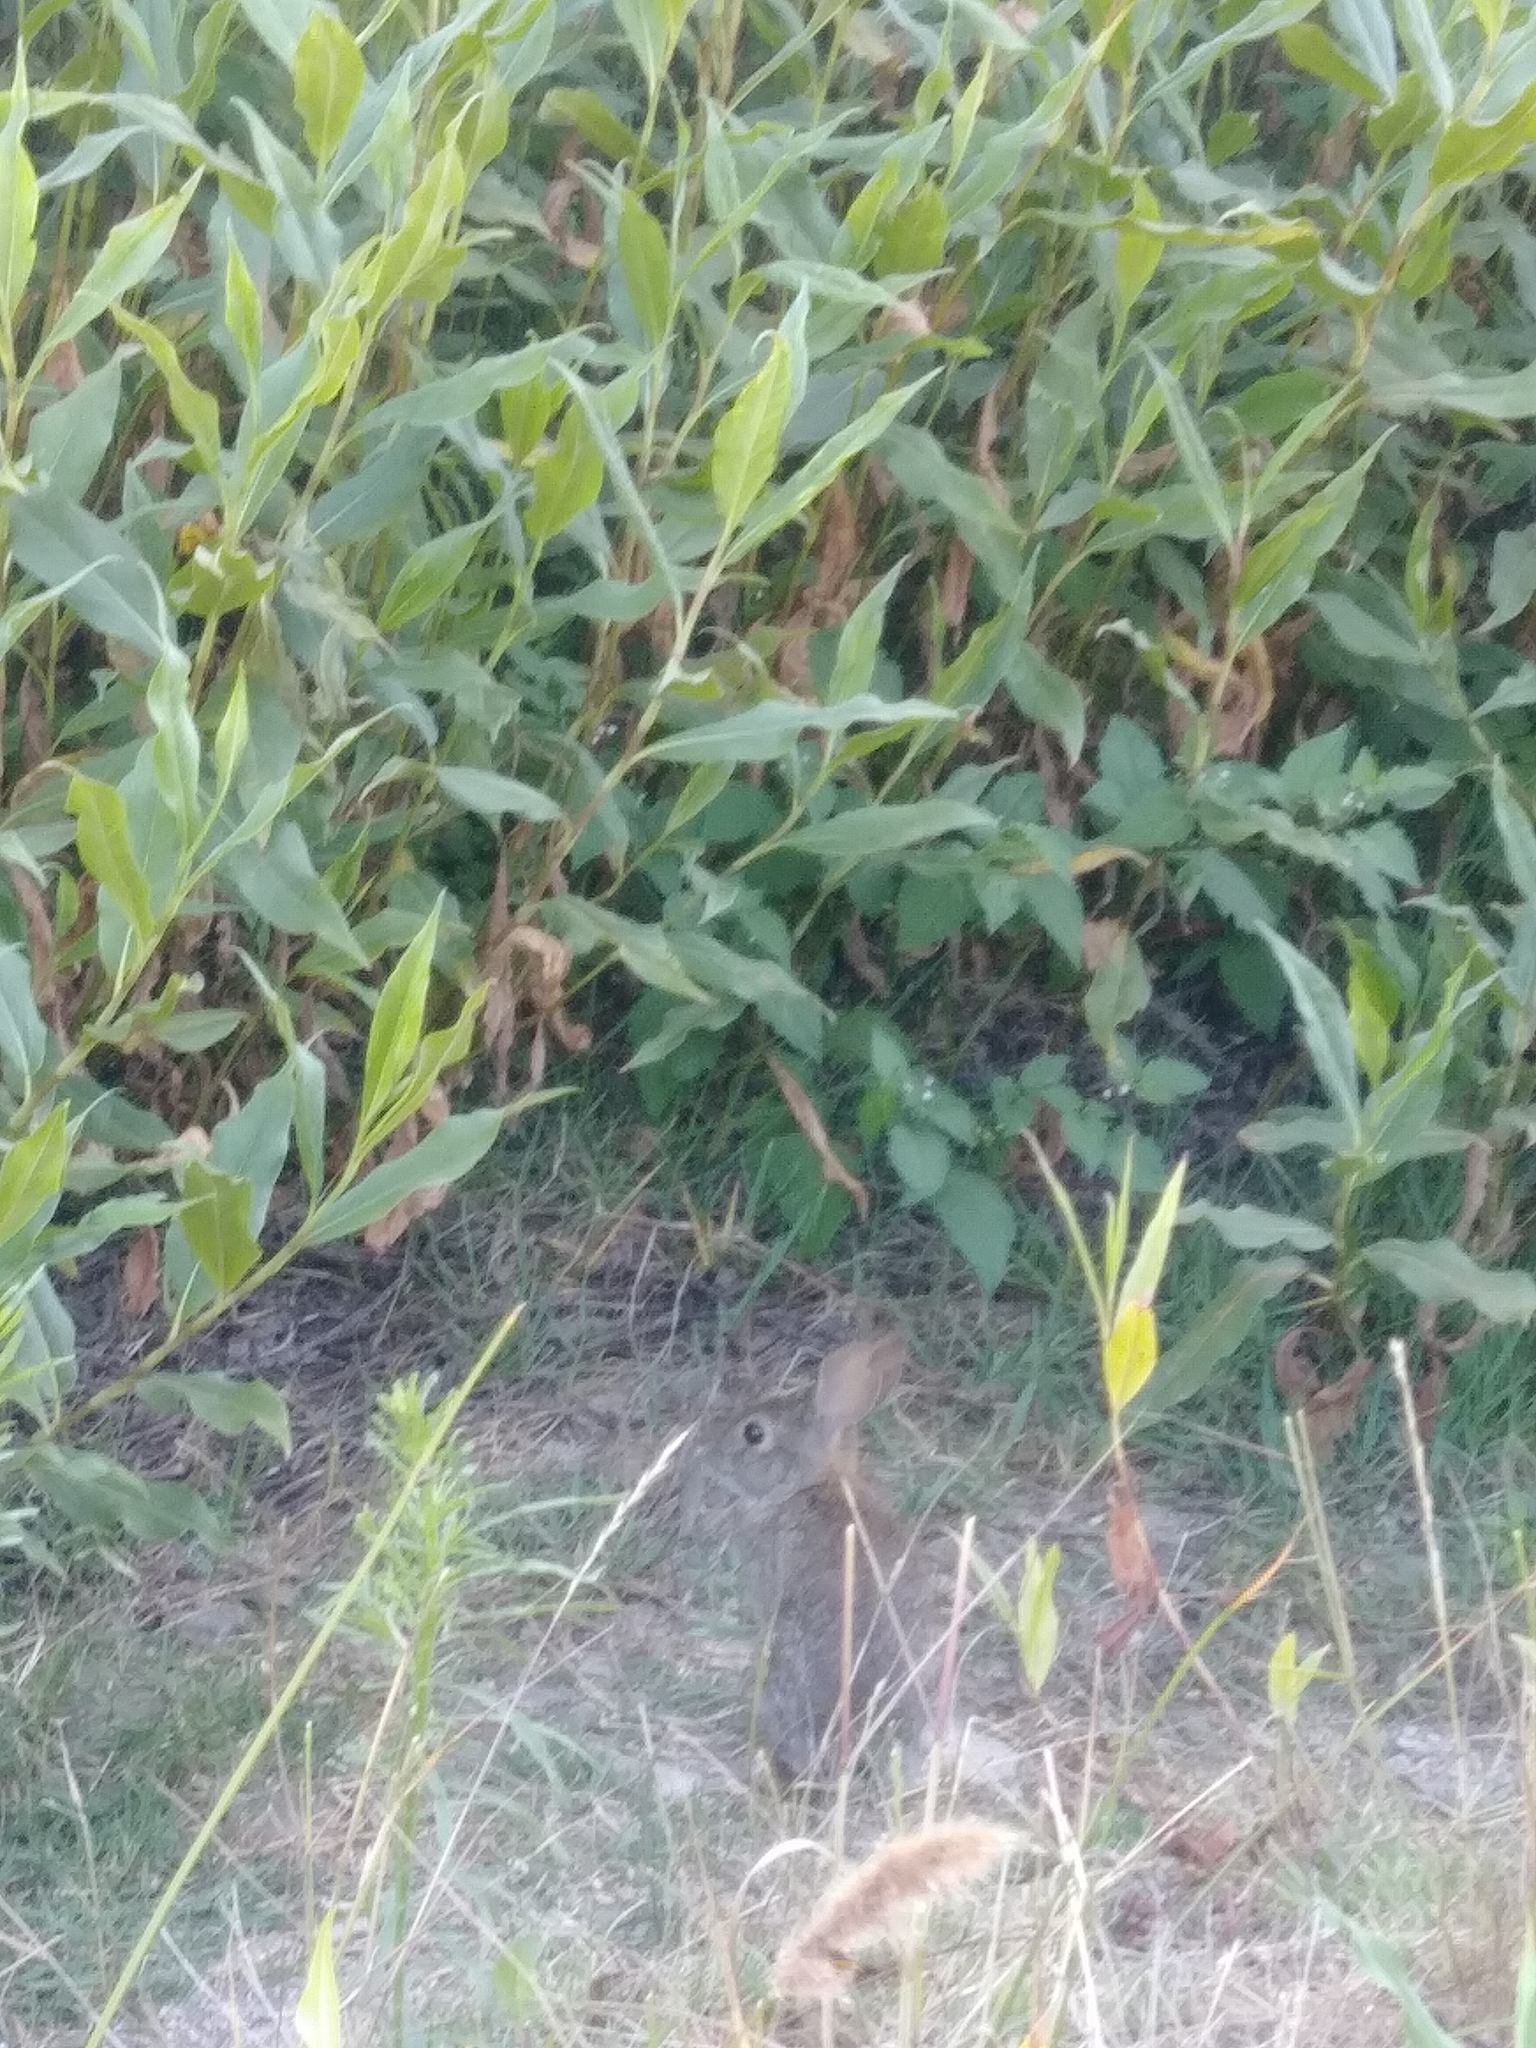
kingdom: Animalia
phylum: Chordata
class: Mammalia
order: Lagomorpha
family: Leporidae
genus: Sylvilagus
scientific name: Sylvilagus bachmani
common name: Brush rabbit
